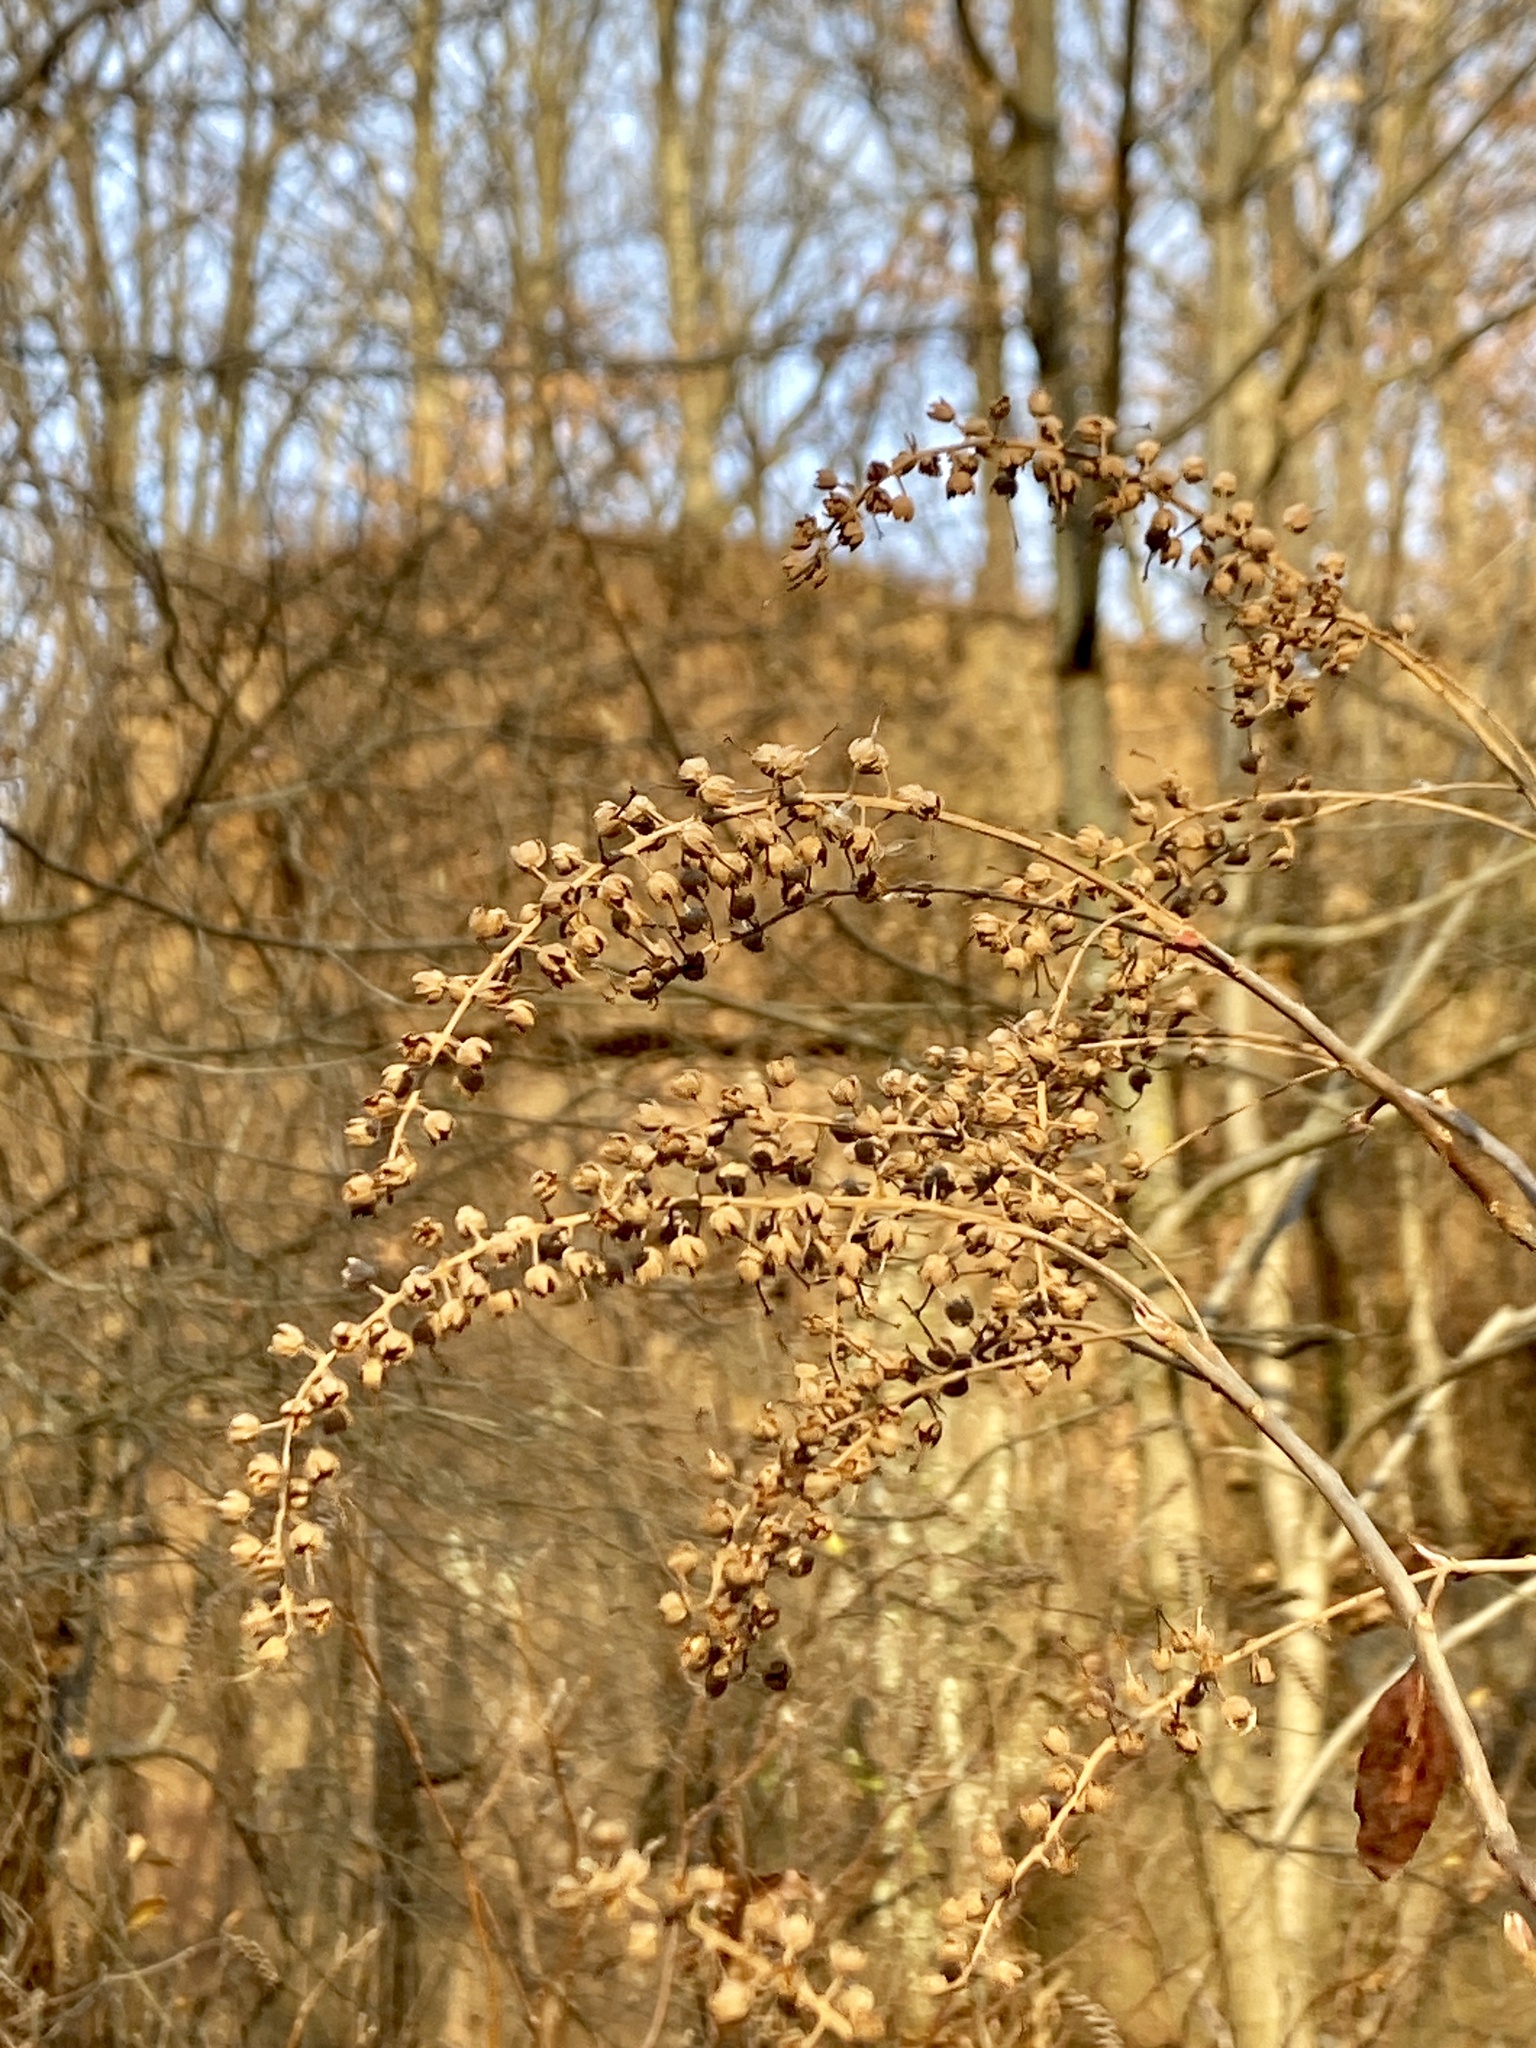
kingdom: Plantae
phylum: Tracheophyta
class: Magnoliopsida
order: Ericales
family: Clethraceae
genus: Clethra
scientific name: Clethra alnifolia
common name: Sweet pepperbush
